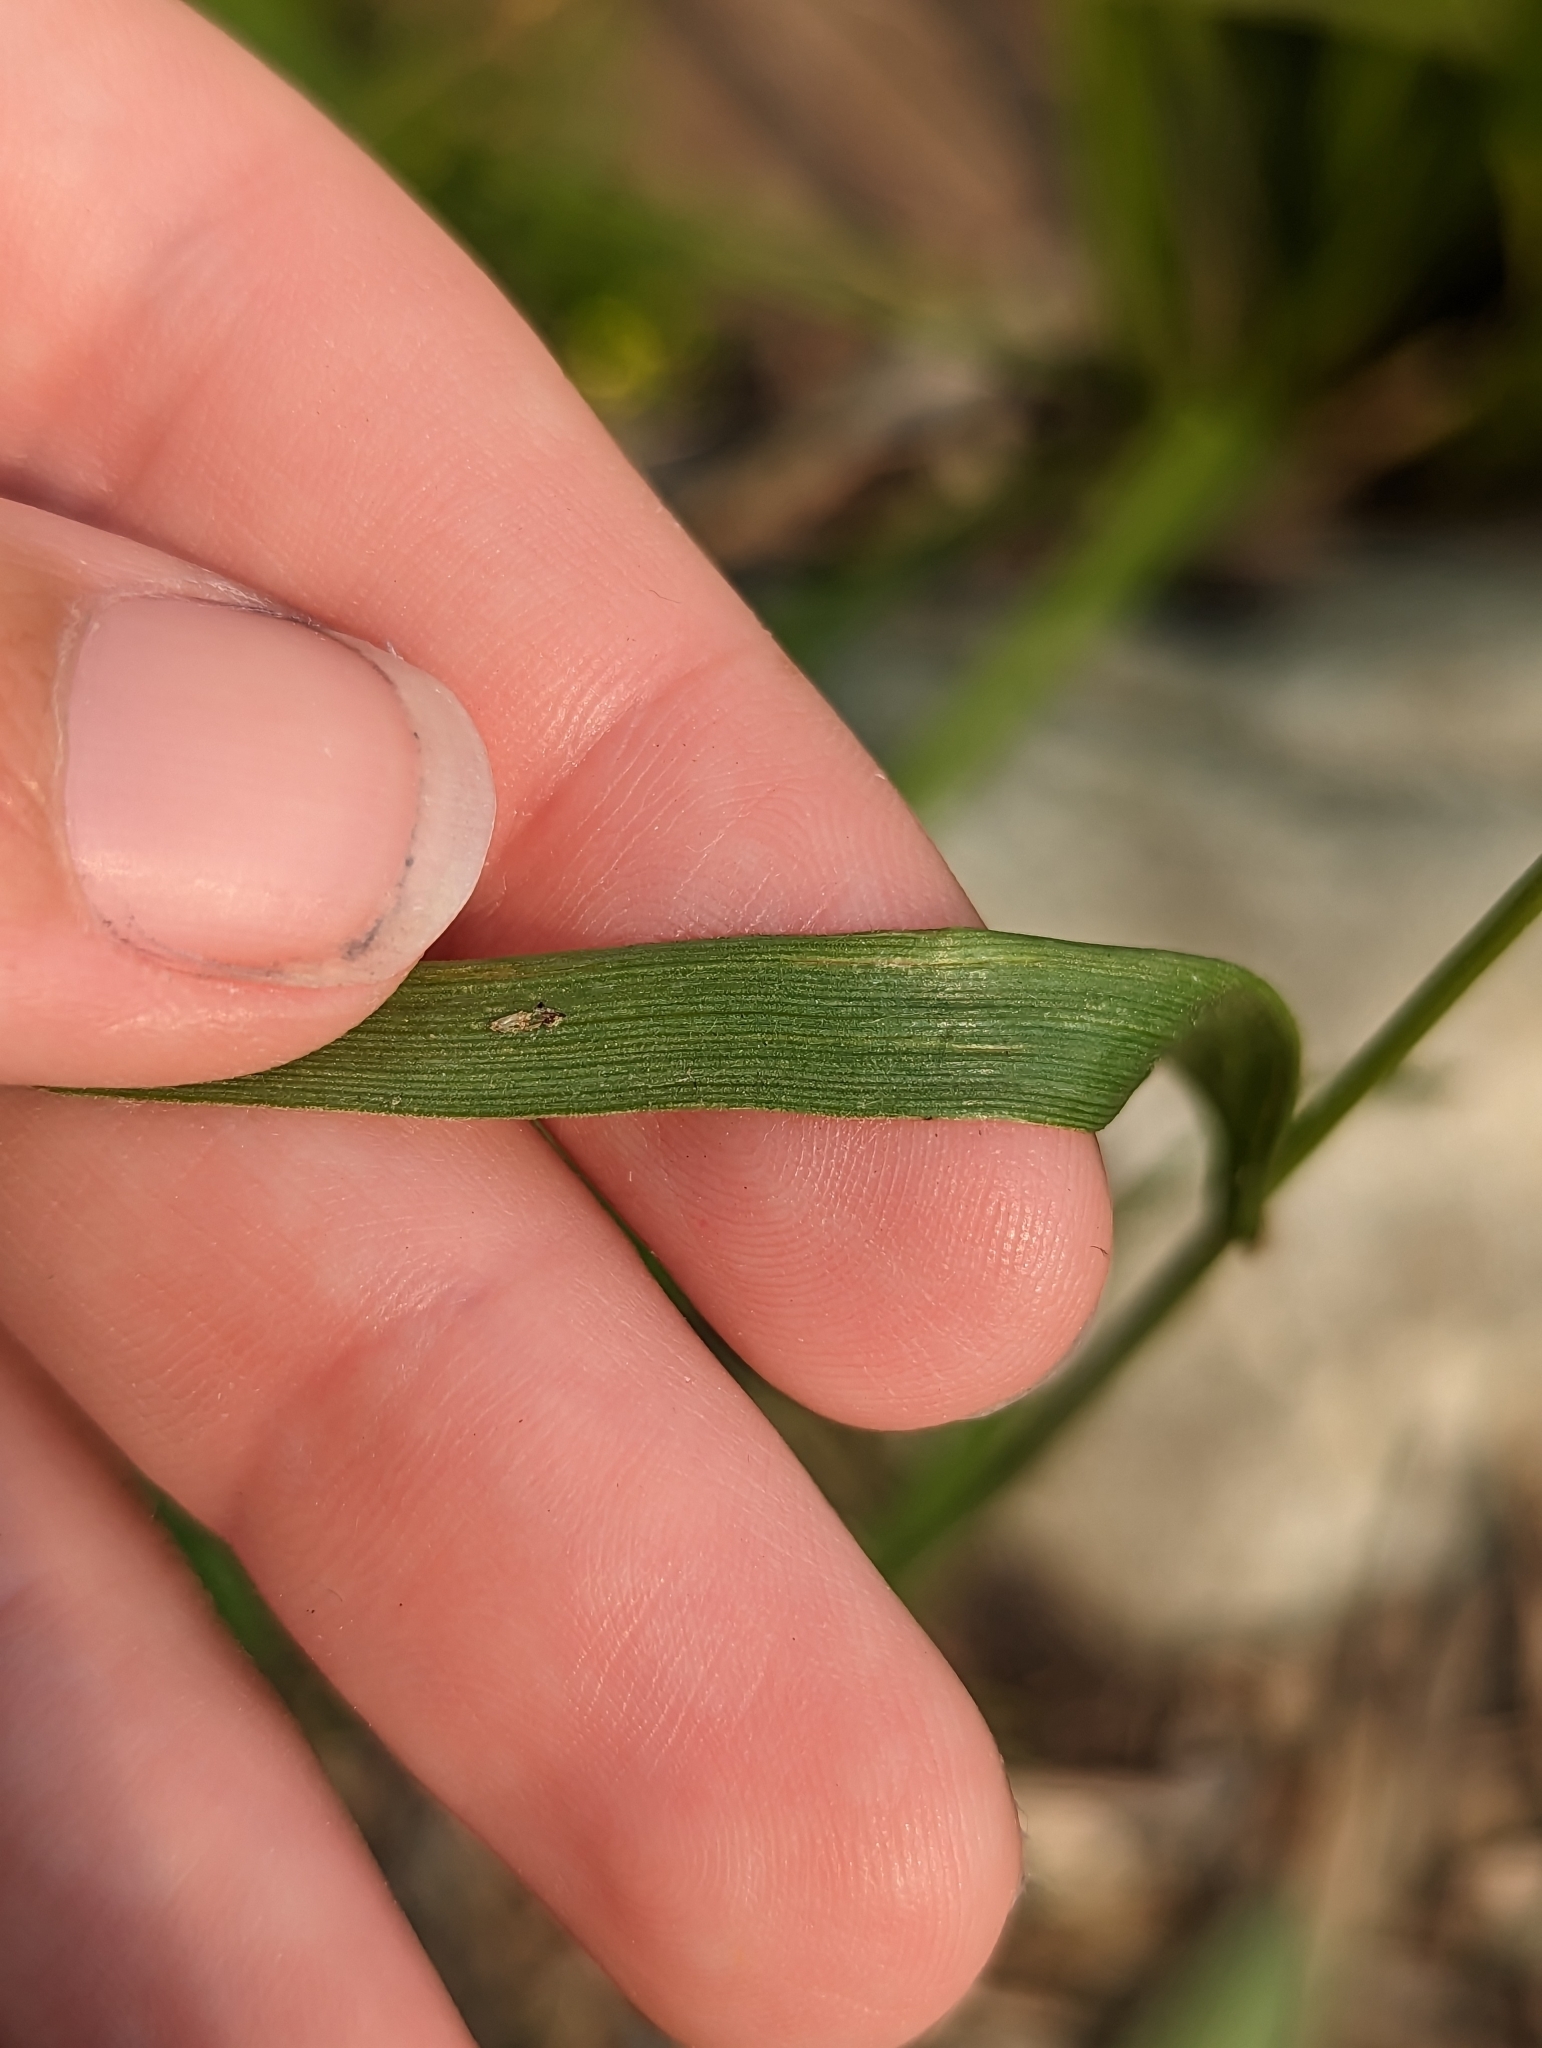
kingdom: Plantae
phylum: Tracheophyta
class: Liliopsida
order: Poales
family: Poaceae
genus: Lolium
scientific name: Lolium perenne
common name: Perennial ryegrass
